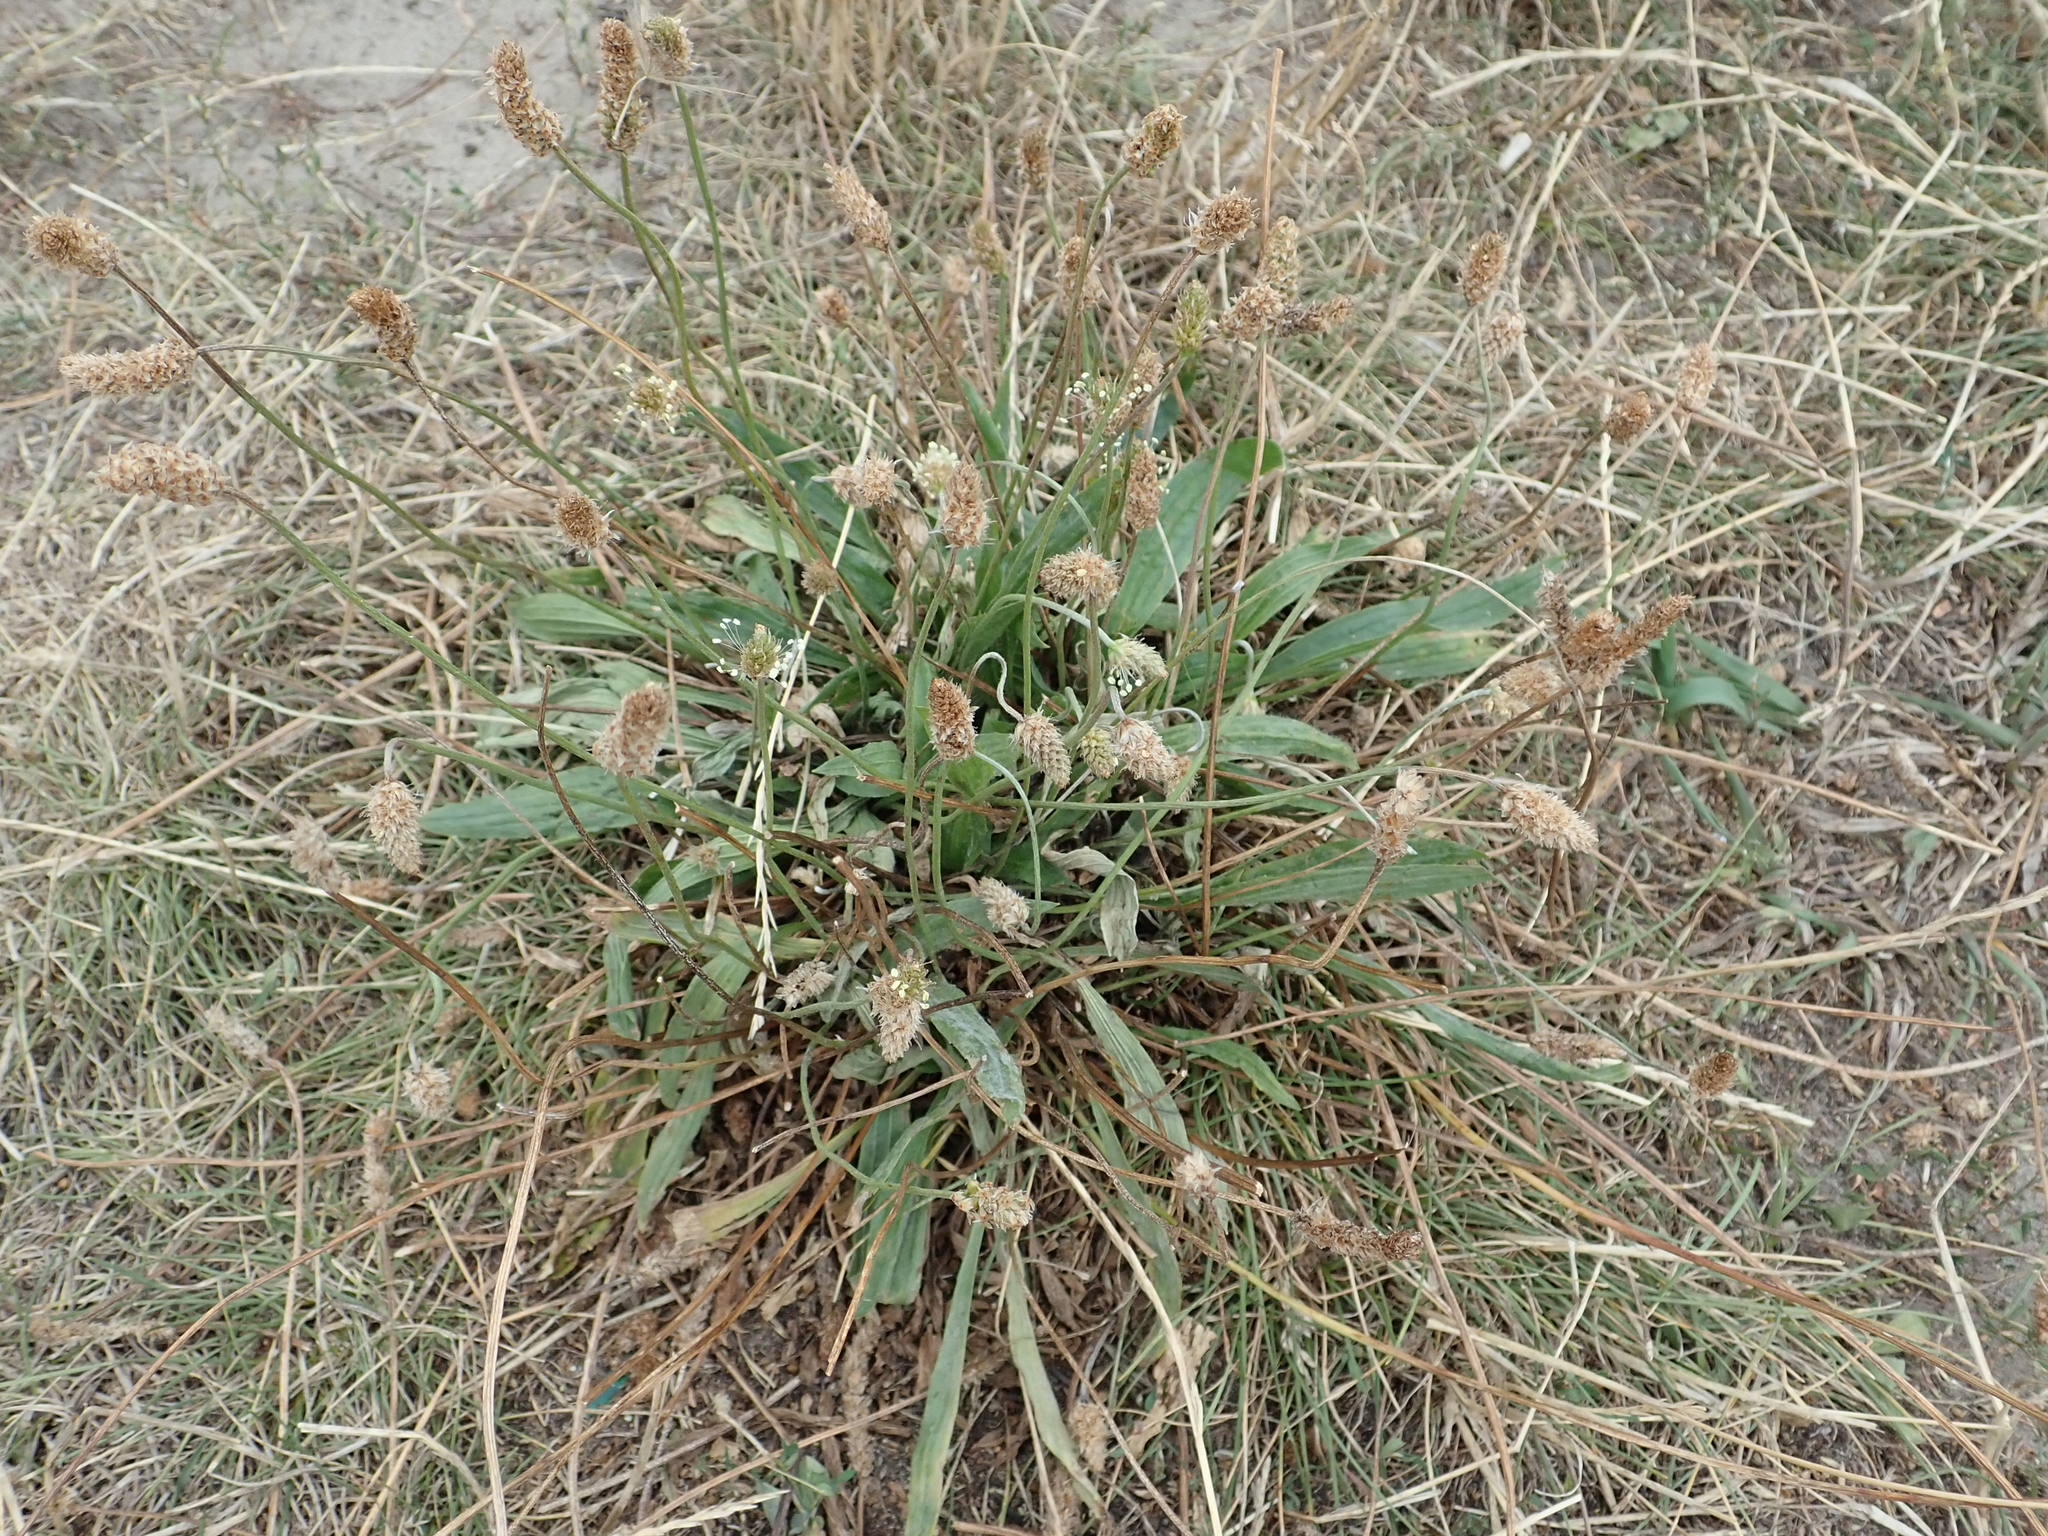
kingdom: Plantae
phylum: Tracheophyta
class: Magnoliopsida
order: Lamiales
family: Plantaginaceae
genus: Plantago
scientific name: Plantago lanceolata
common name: Ribwort plantain
